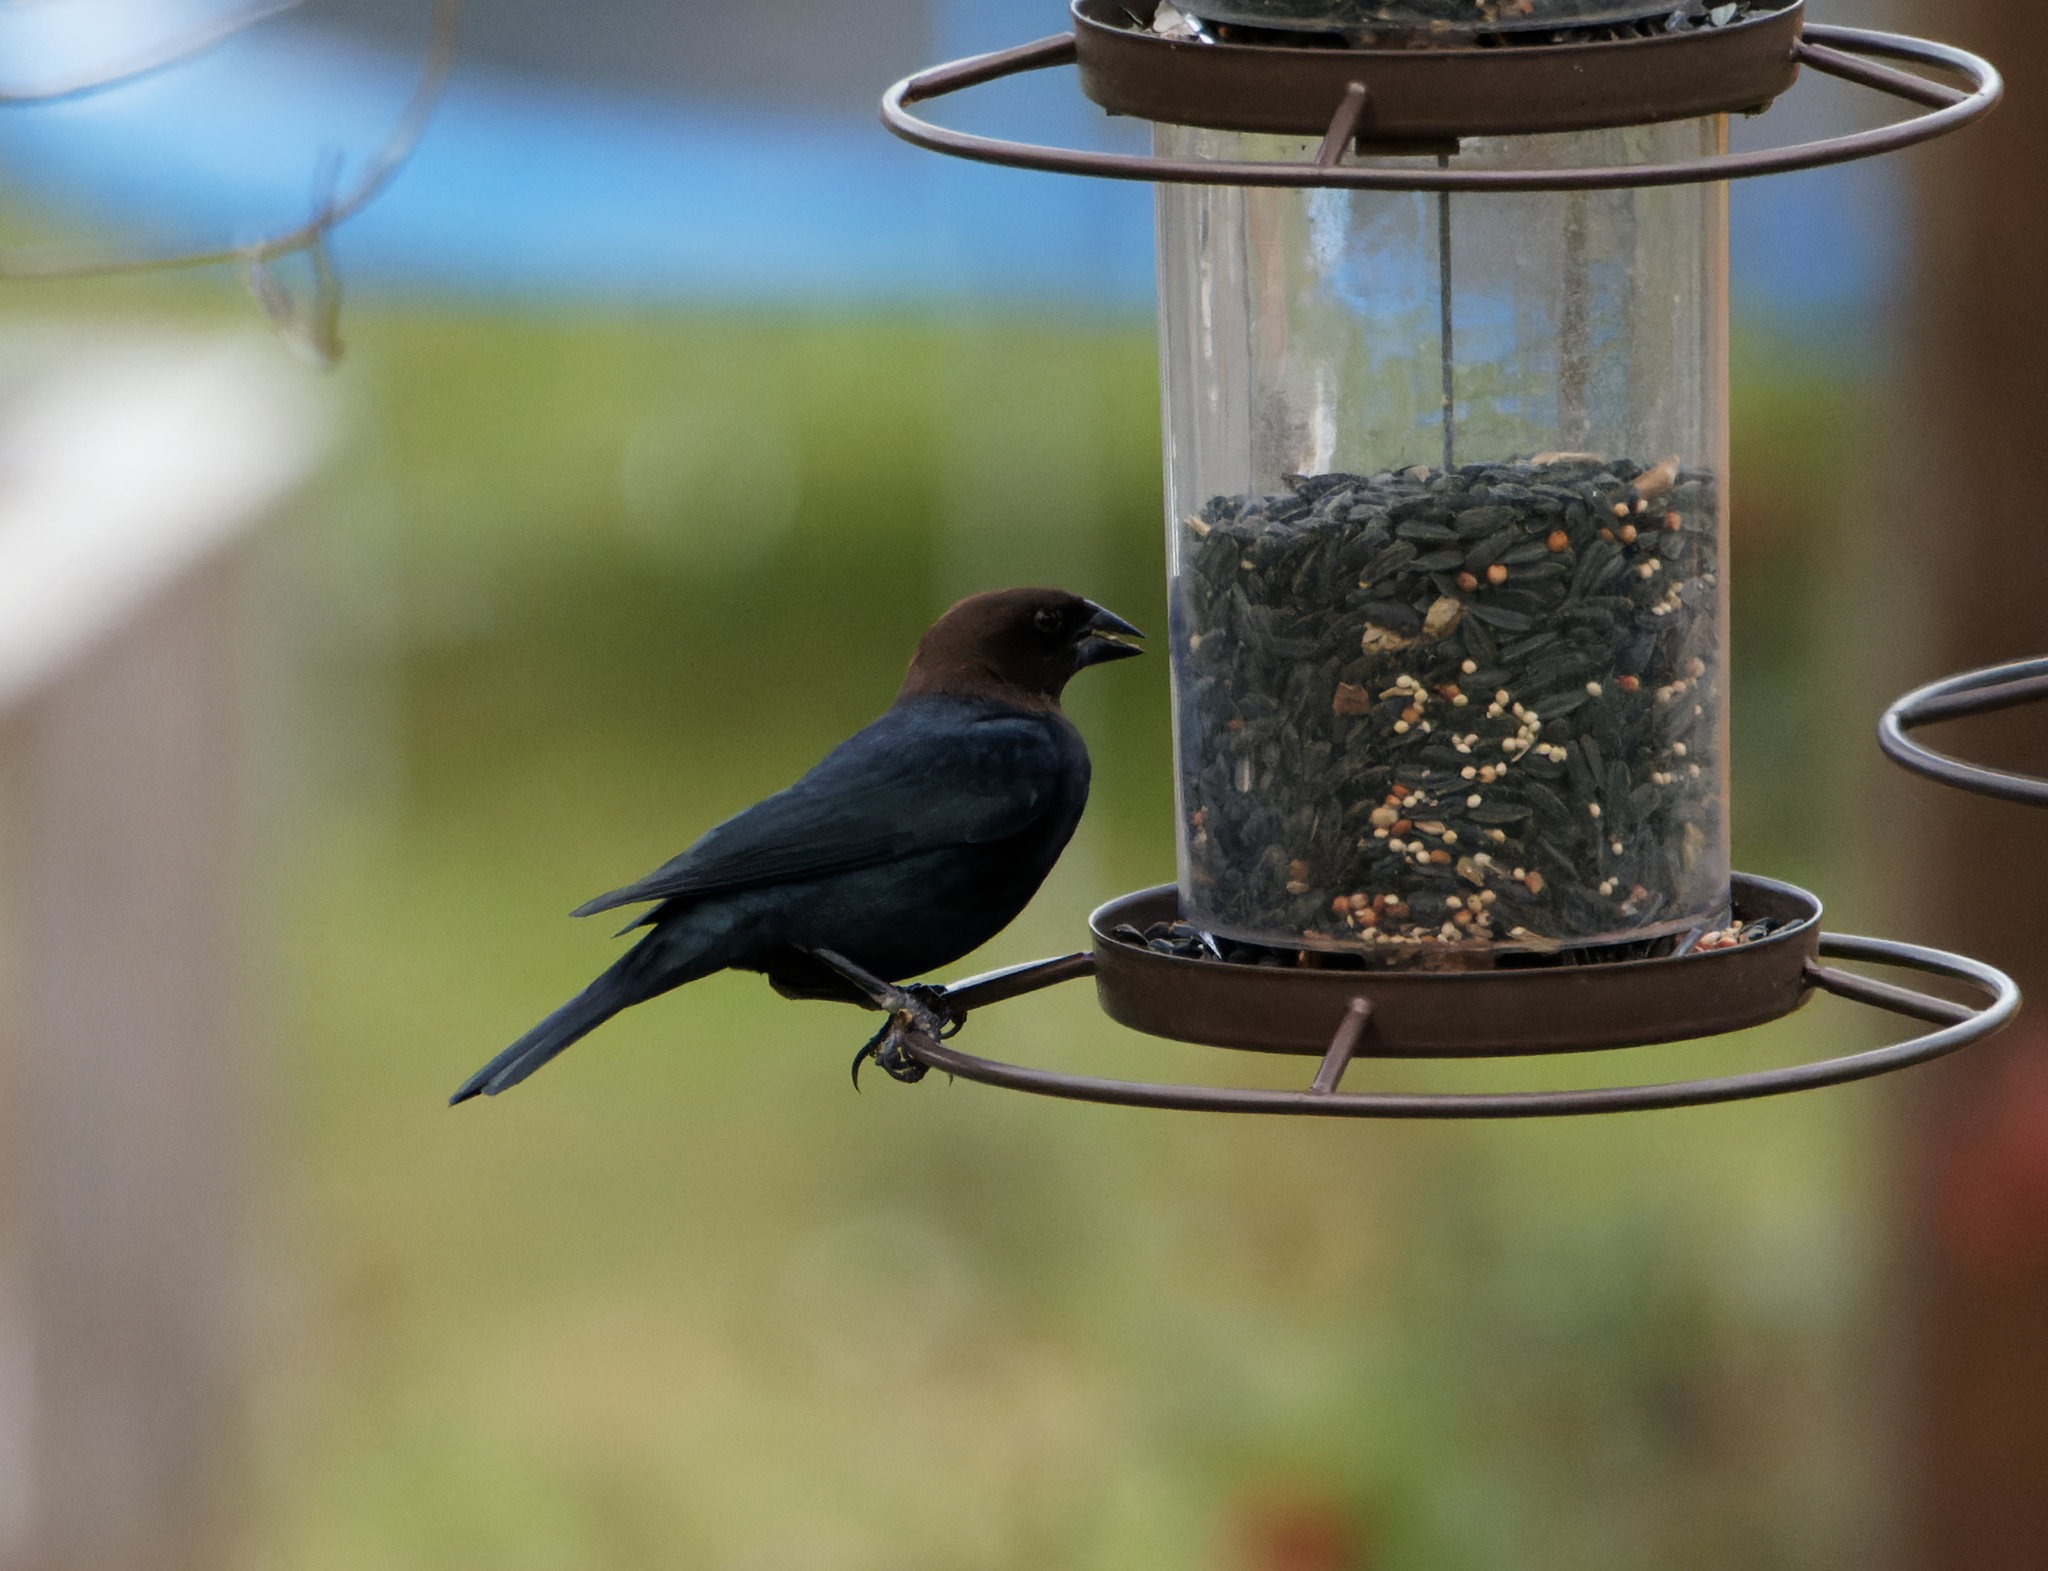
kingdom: Animalia
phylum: Chordata
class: Aves
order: Passeriformes
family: Icteridae
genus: Molothrus
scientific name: Molothrus ater
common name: Brown-headed cowbird
